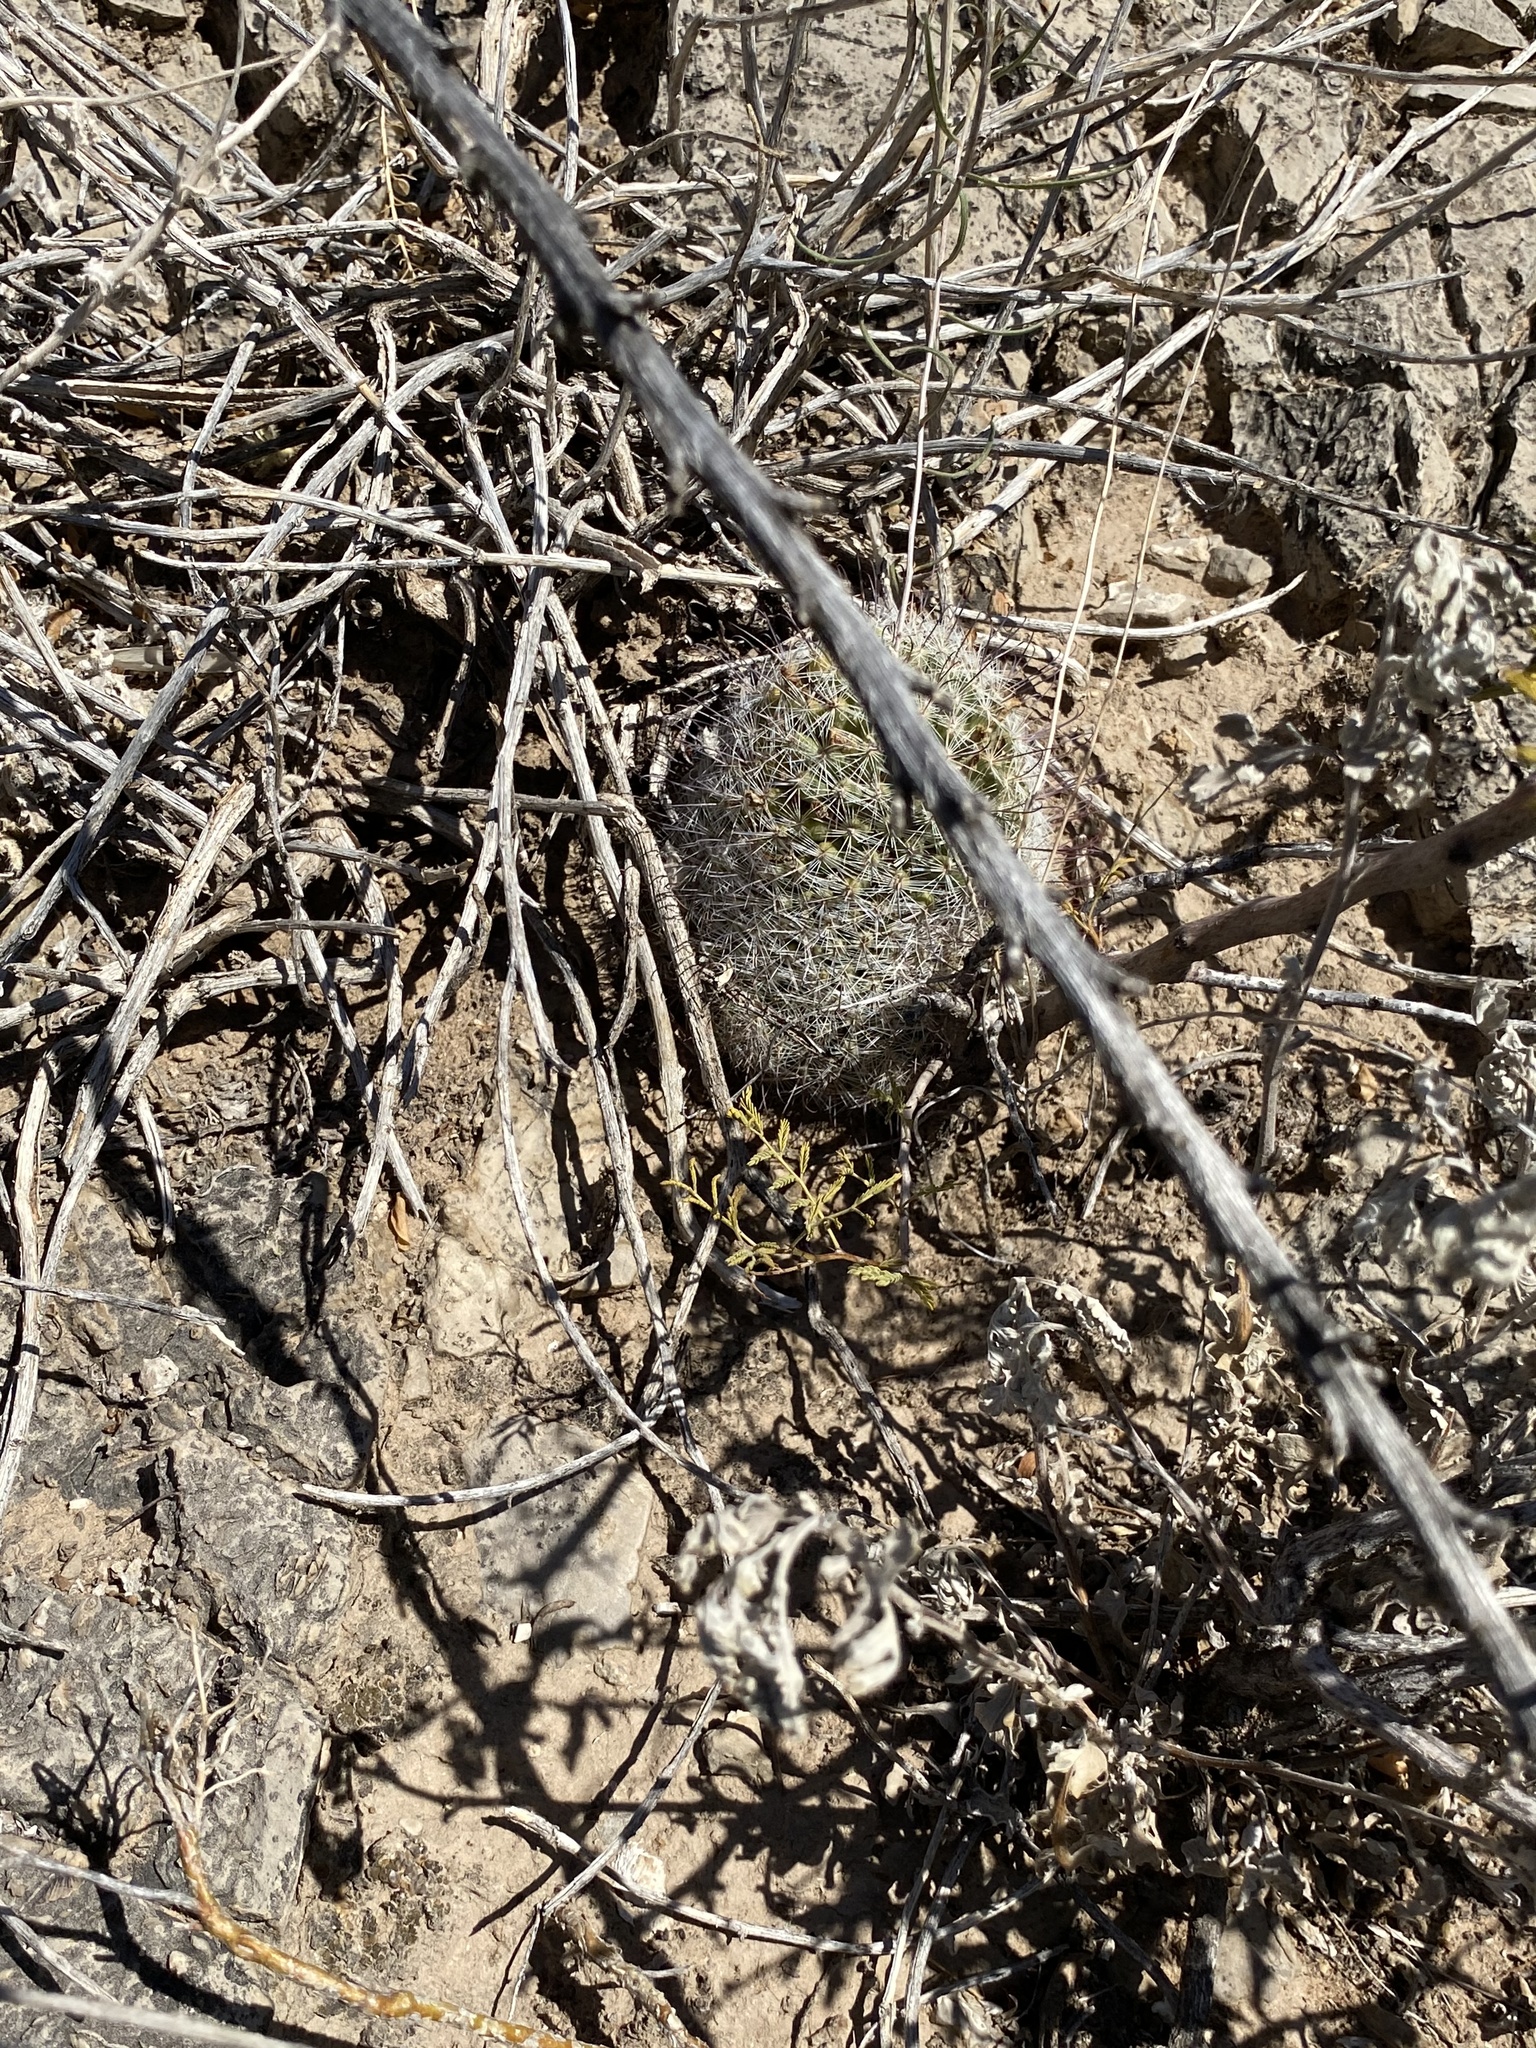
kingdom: Plantae
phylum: Tracheophyta
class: Magnoliopsida
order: Caryophyllales
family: Cactaceae
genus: Cochemiea
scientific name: Cochemiea grahamii
